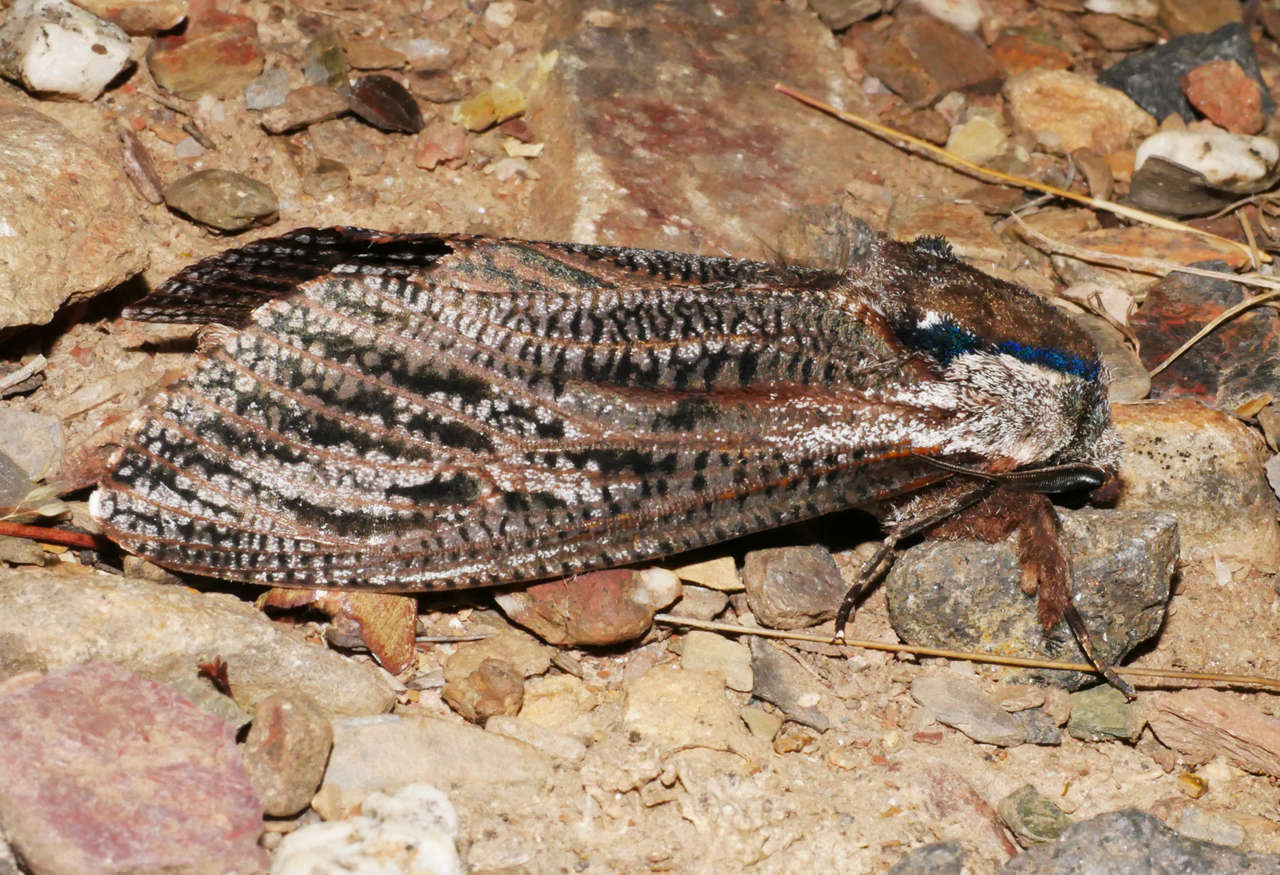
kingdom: Animalia
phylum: Arthropoda
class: Insecta
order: Lepidoptera
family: Cossidae
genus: Endoxyla
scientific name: Endoxyla encalypti
